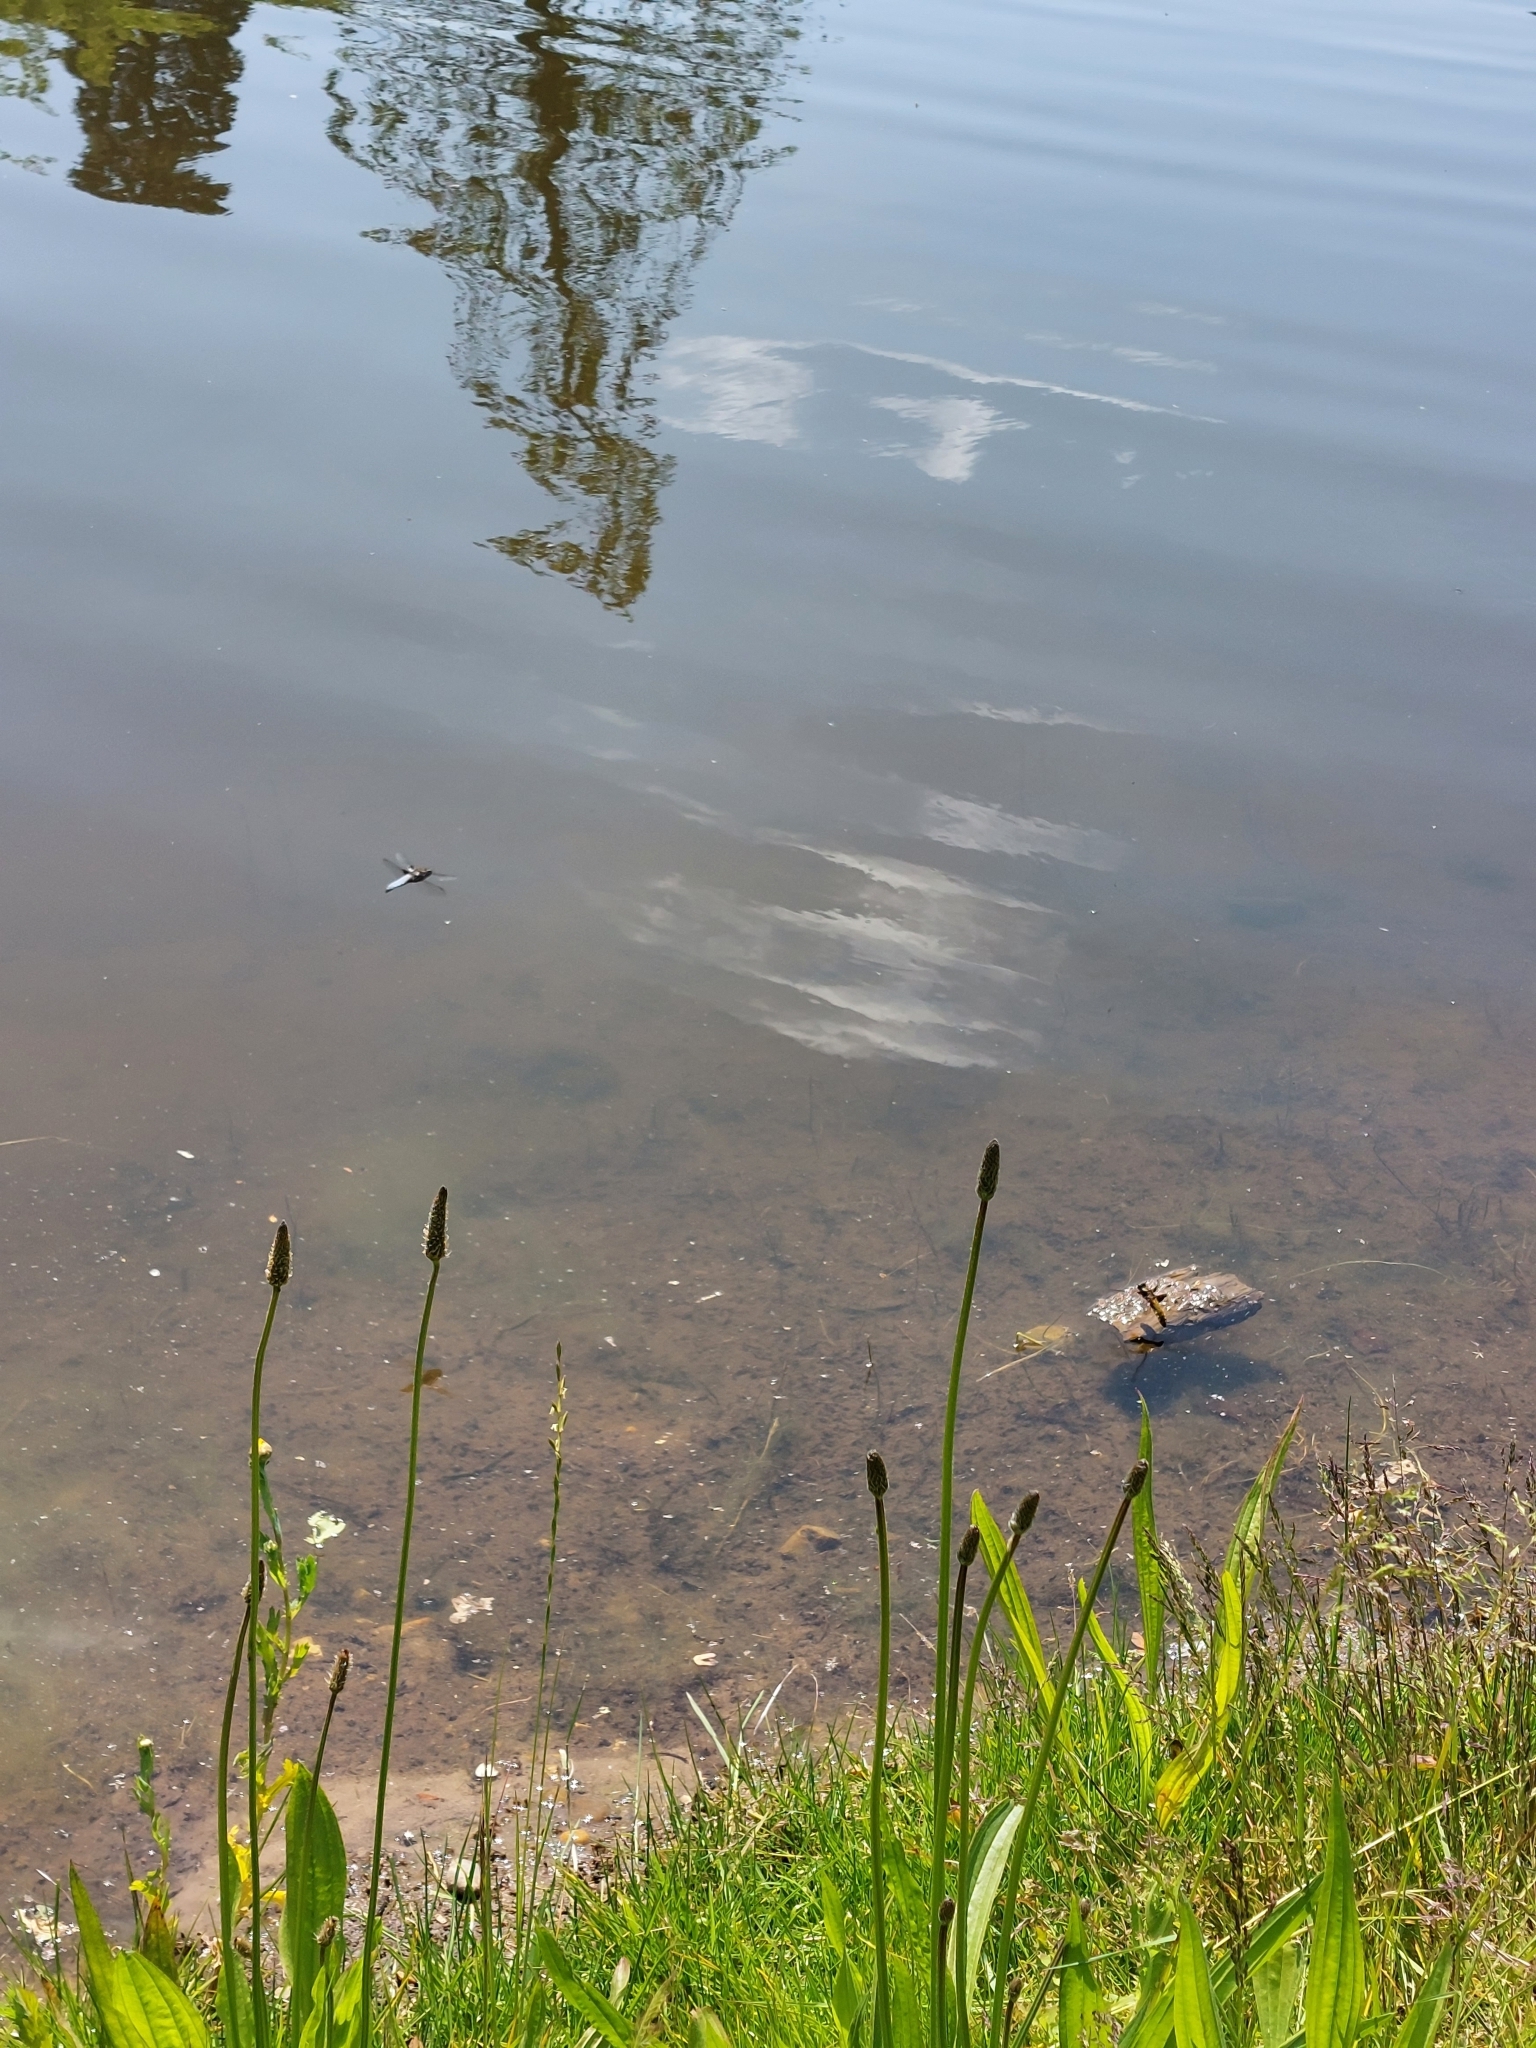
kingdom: Animalia
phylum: Arthropoda
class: Insecta
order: Odonata
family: Libellulidae
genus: Libellula
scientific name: Libellula depressa
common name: Broad-bodied chaser
